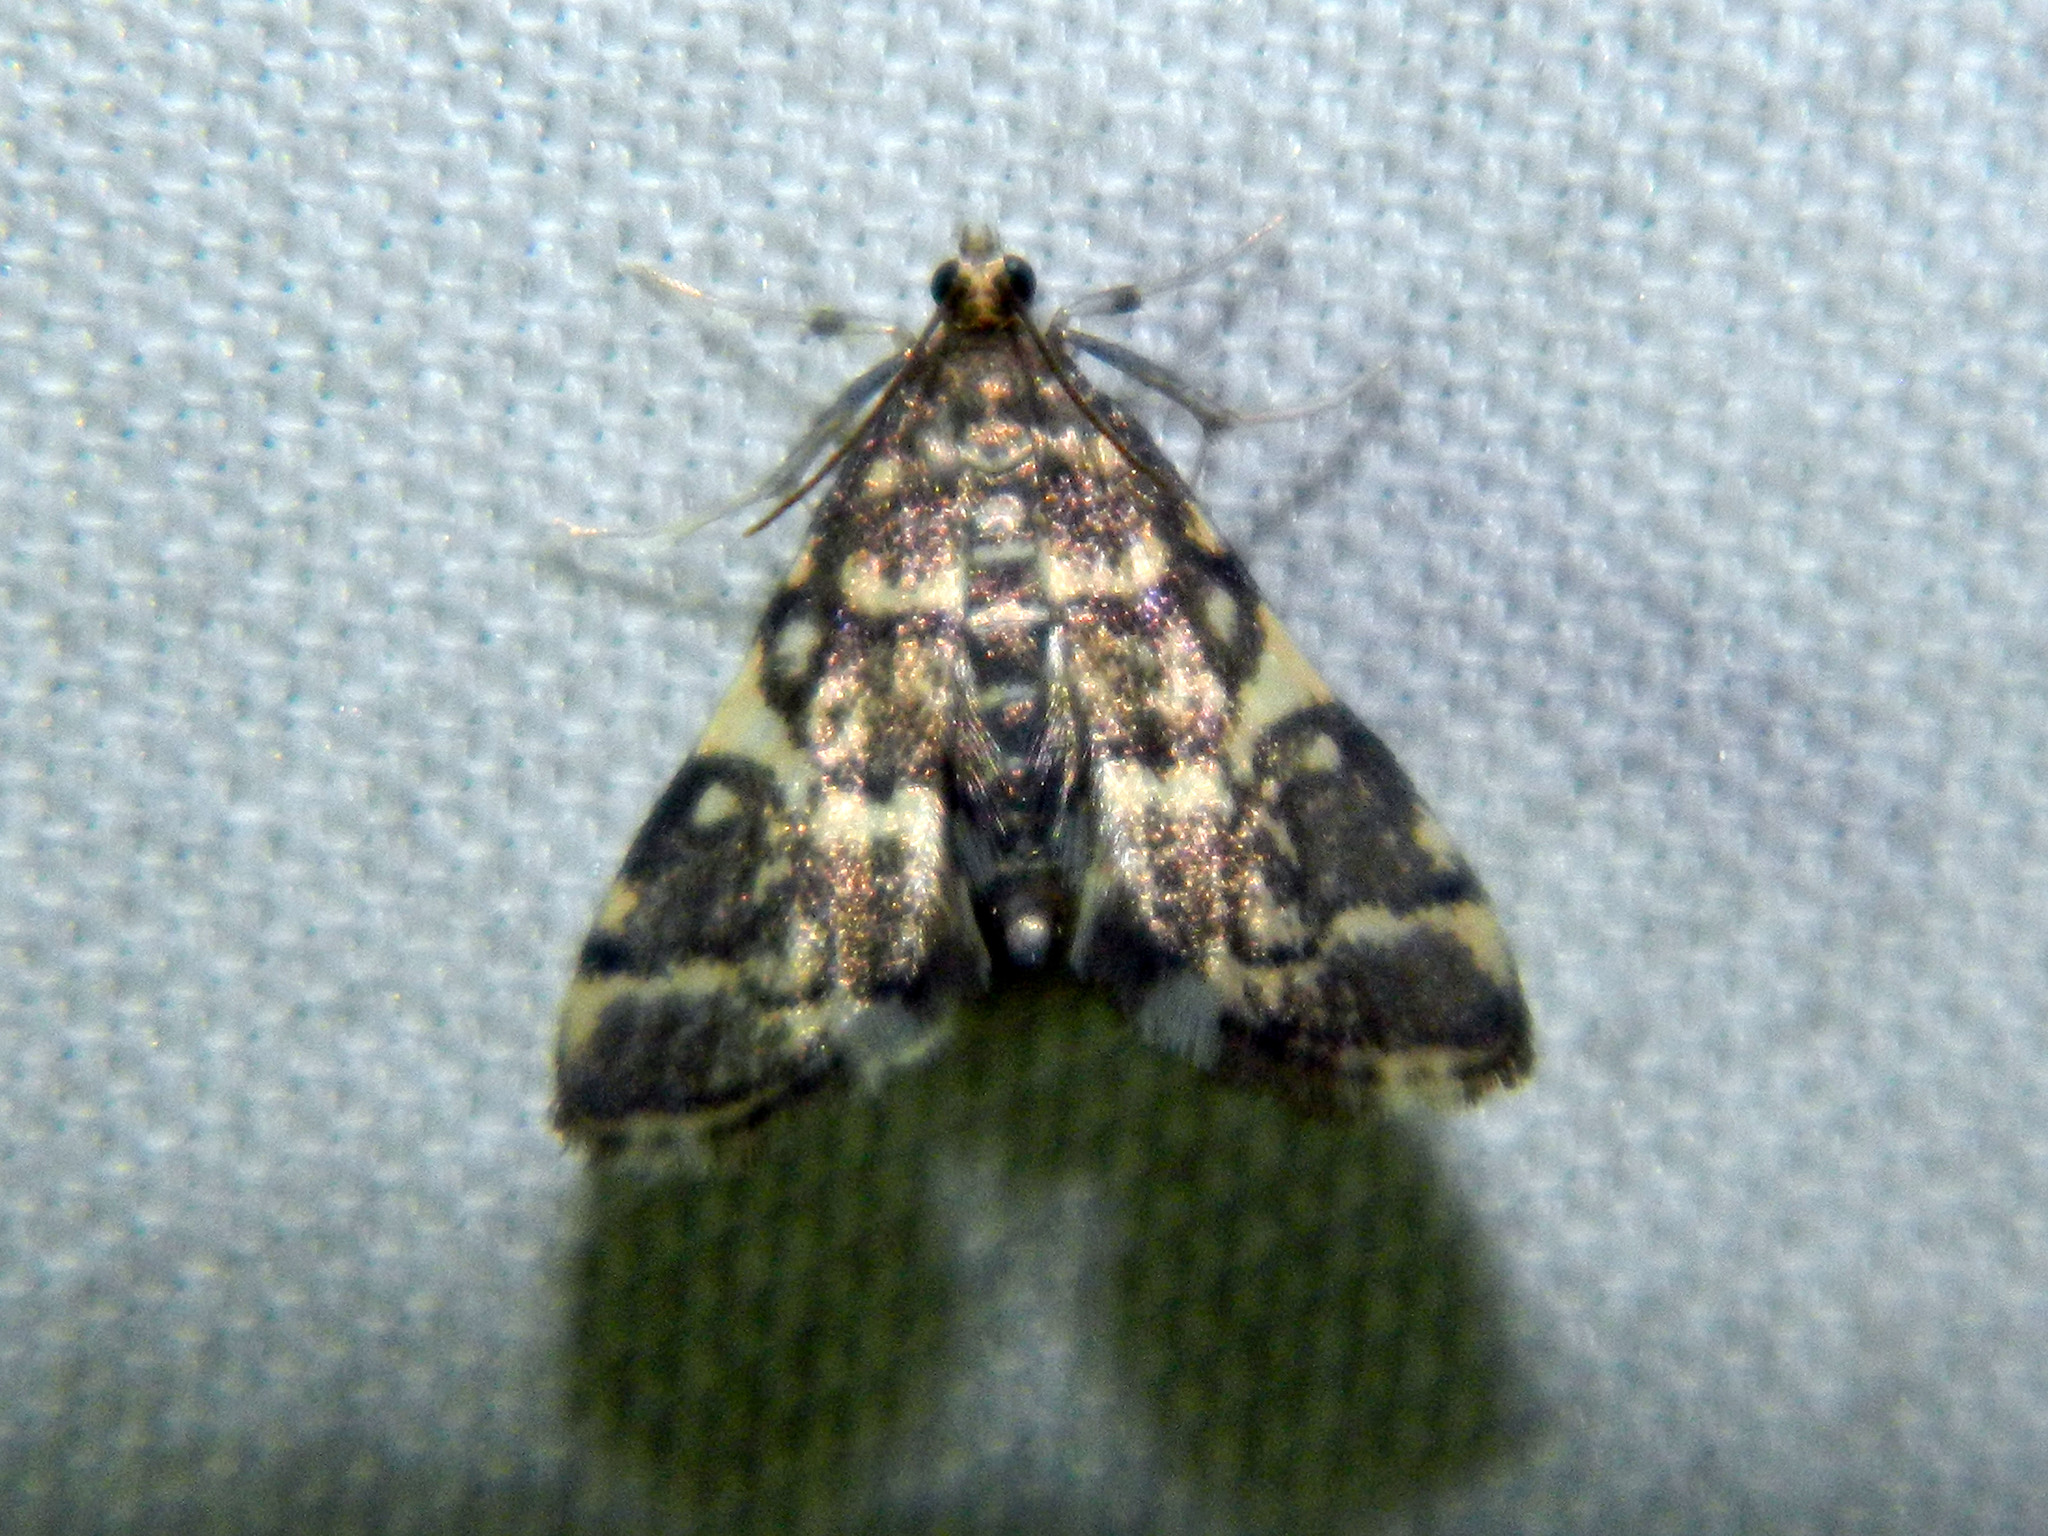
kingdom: Animalia
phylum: Arthropoda
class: Insecta
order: Lepidoptera
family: Crambidae
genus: Anageshna
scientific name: Anageshna primordialis
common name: Yellow-spotted webworm moth
